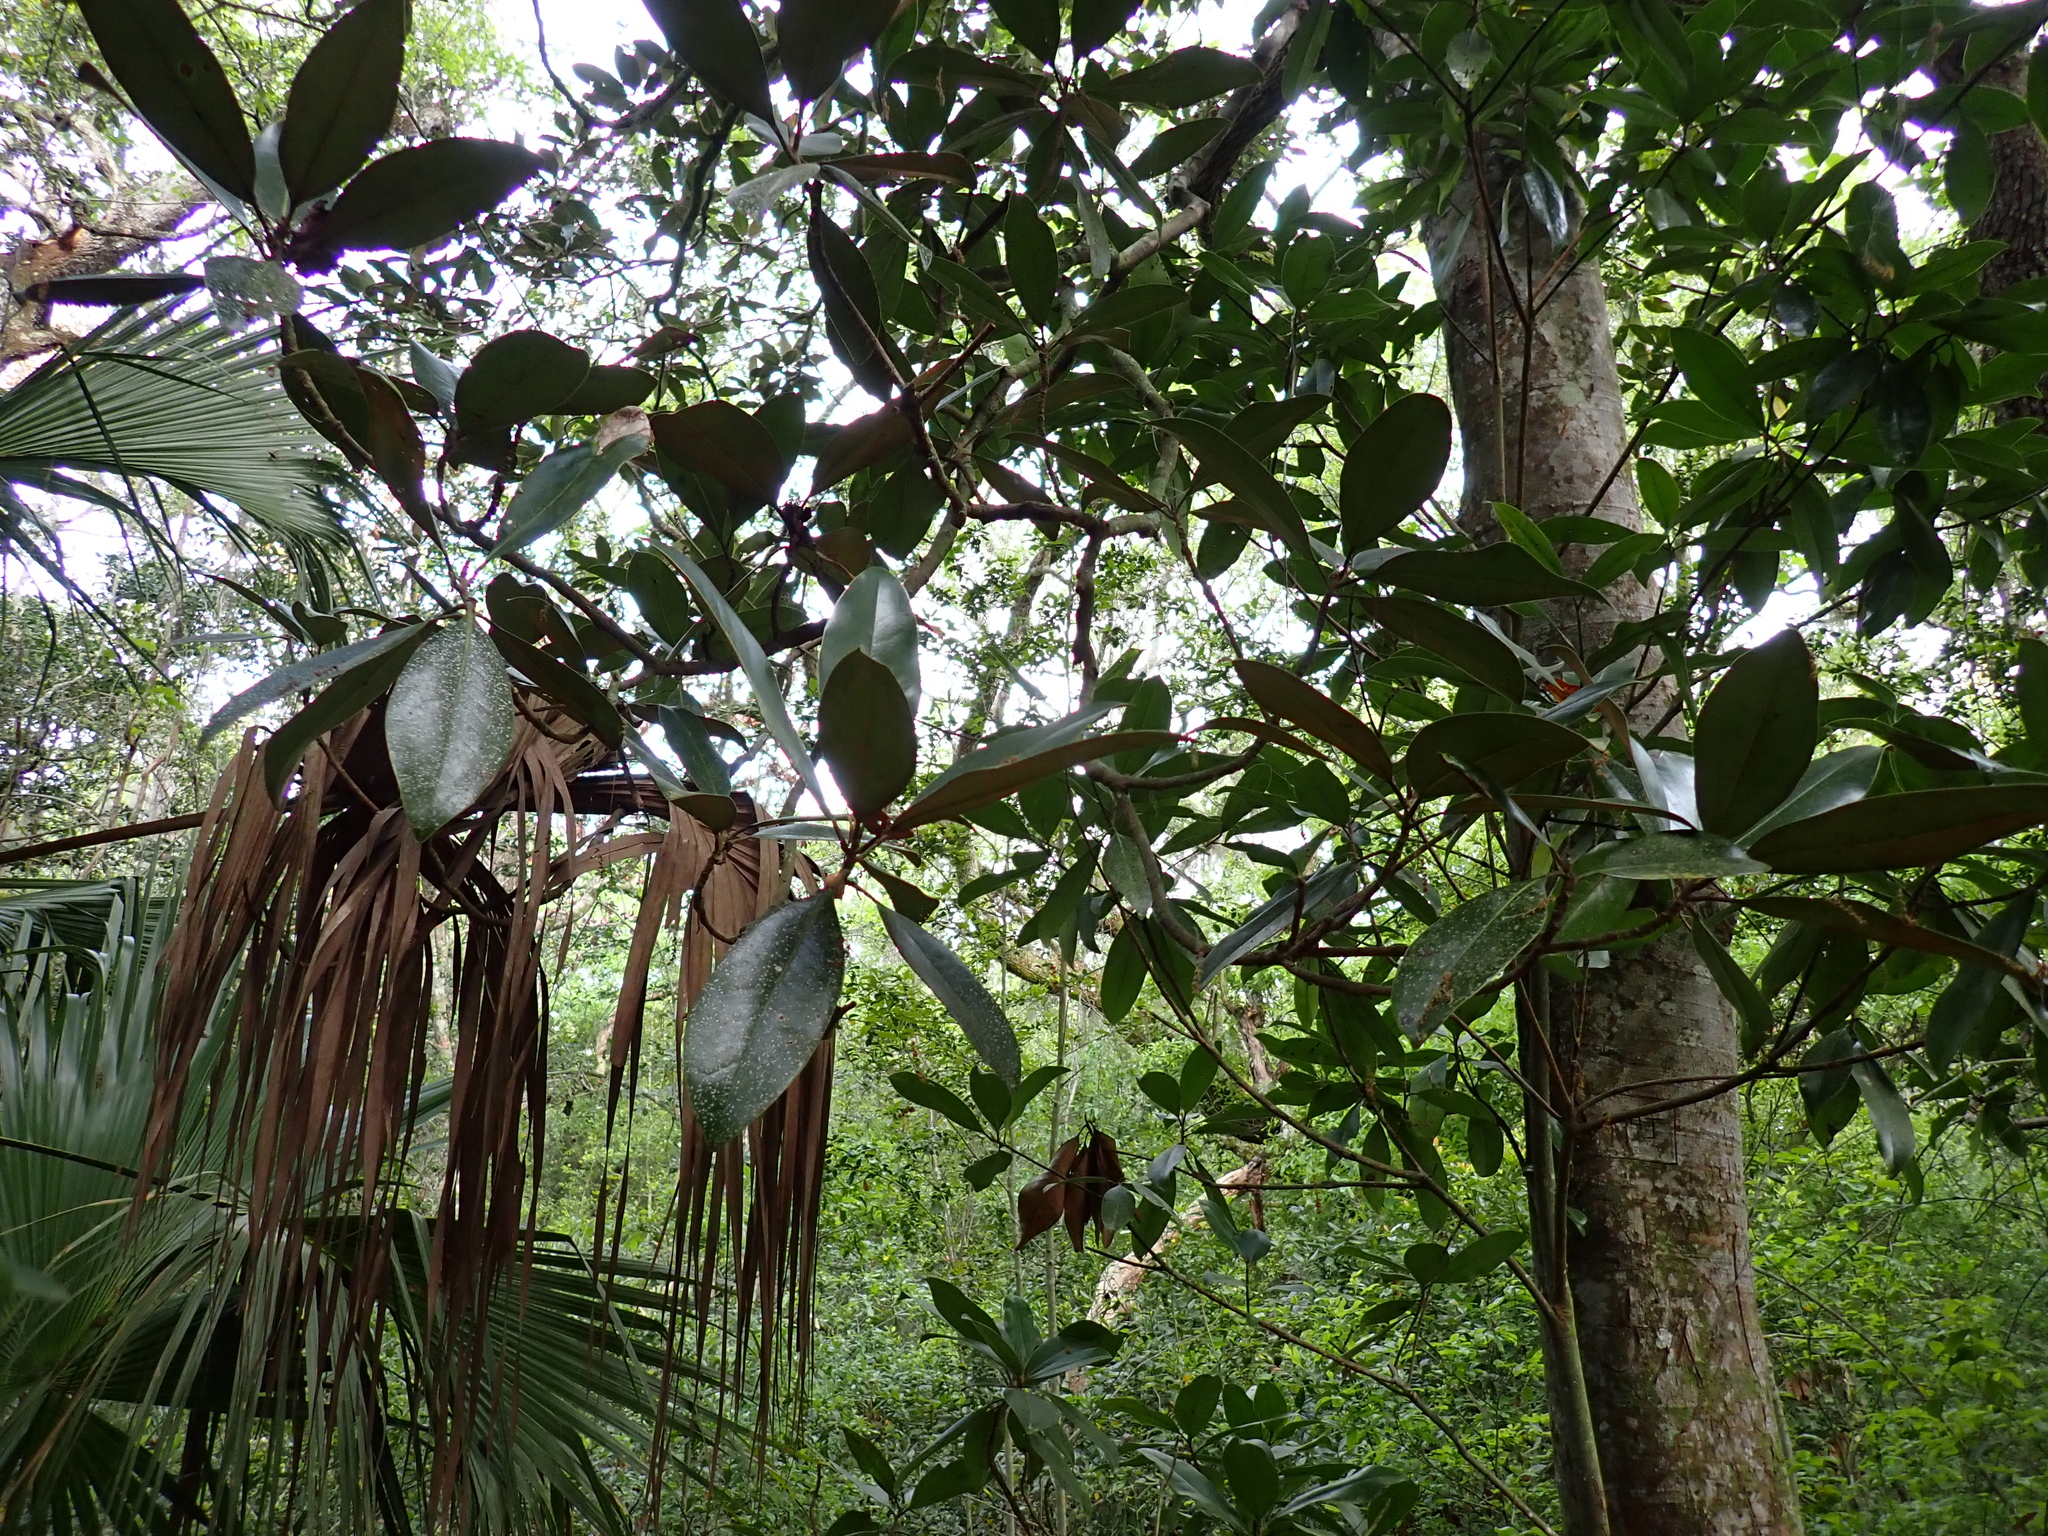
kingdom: Plantae
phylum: Tracheophyta
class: Magnoliopsida
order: Magnoliales
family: Magnoliaceae
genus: Magnolia
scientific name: Magnolia grandiflora
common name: Southern magnolia
